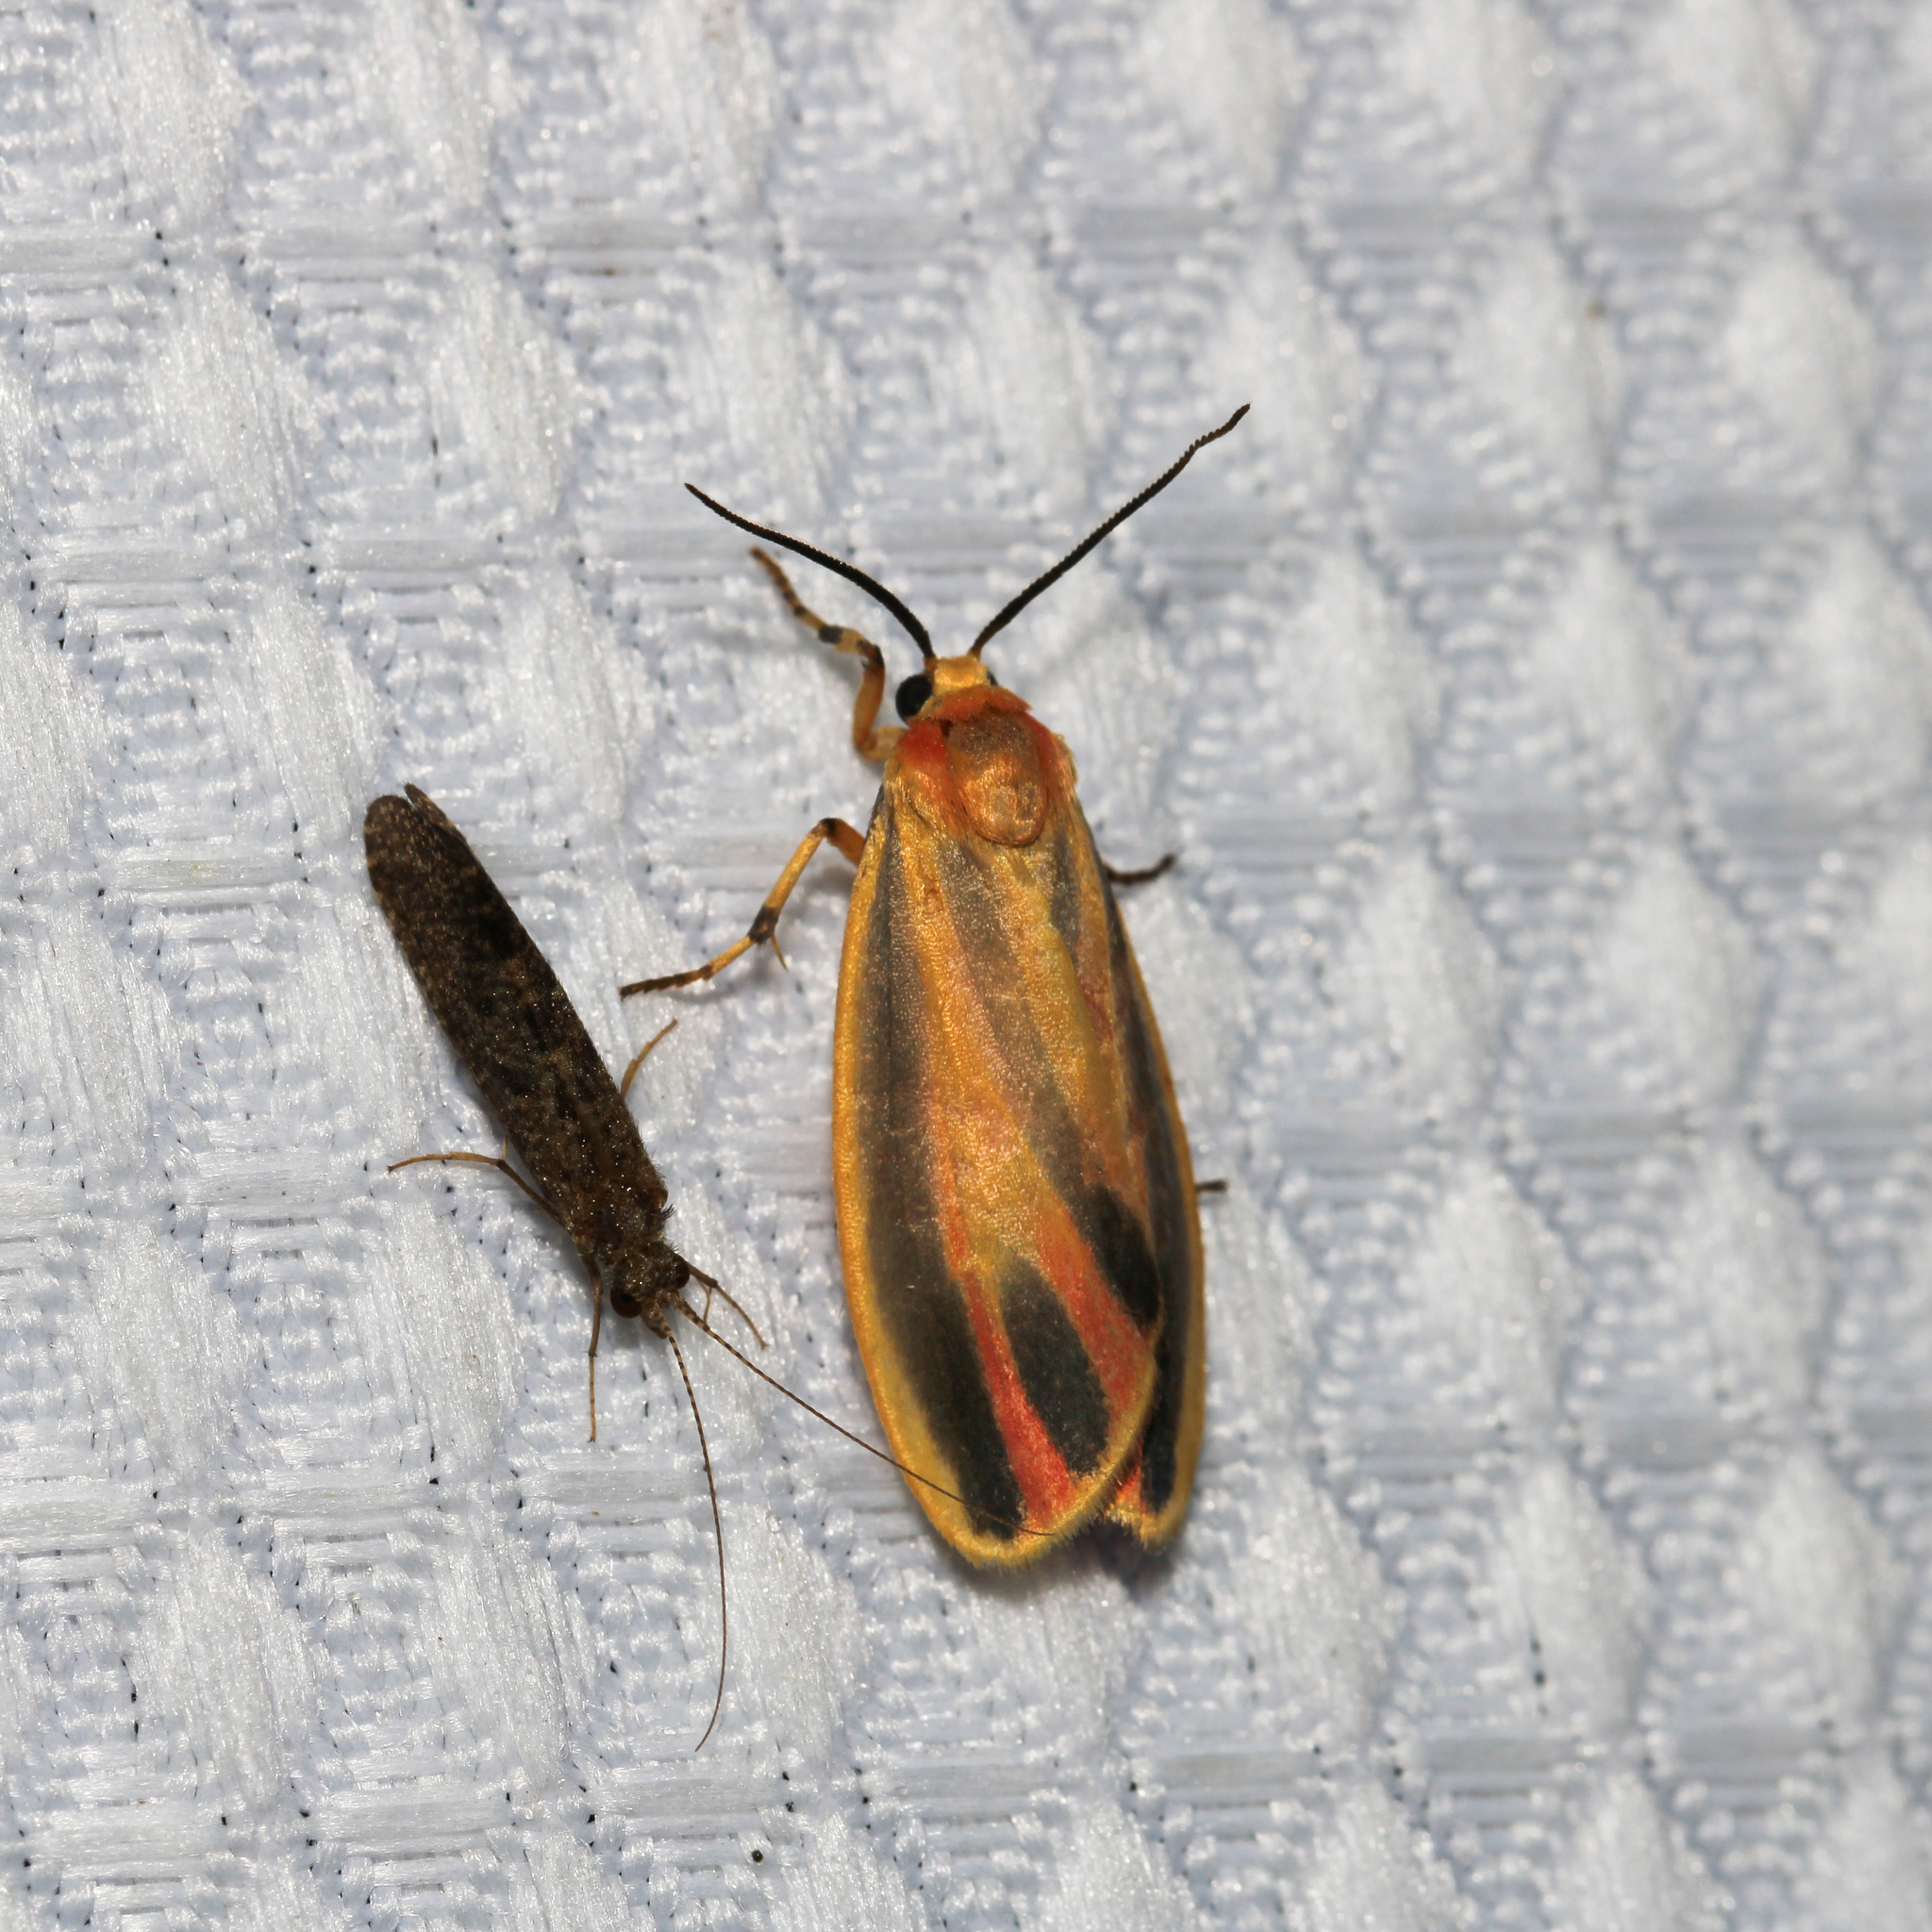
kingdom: Animalia
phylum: Arthropoda
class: Insecta
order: Lepidoptera
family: Erebidae
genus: Hypoprepia
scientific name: Hypoprepia fucosa
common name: Painted lichen moth
